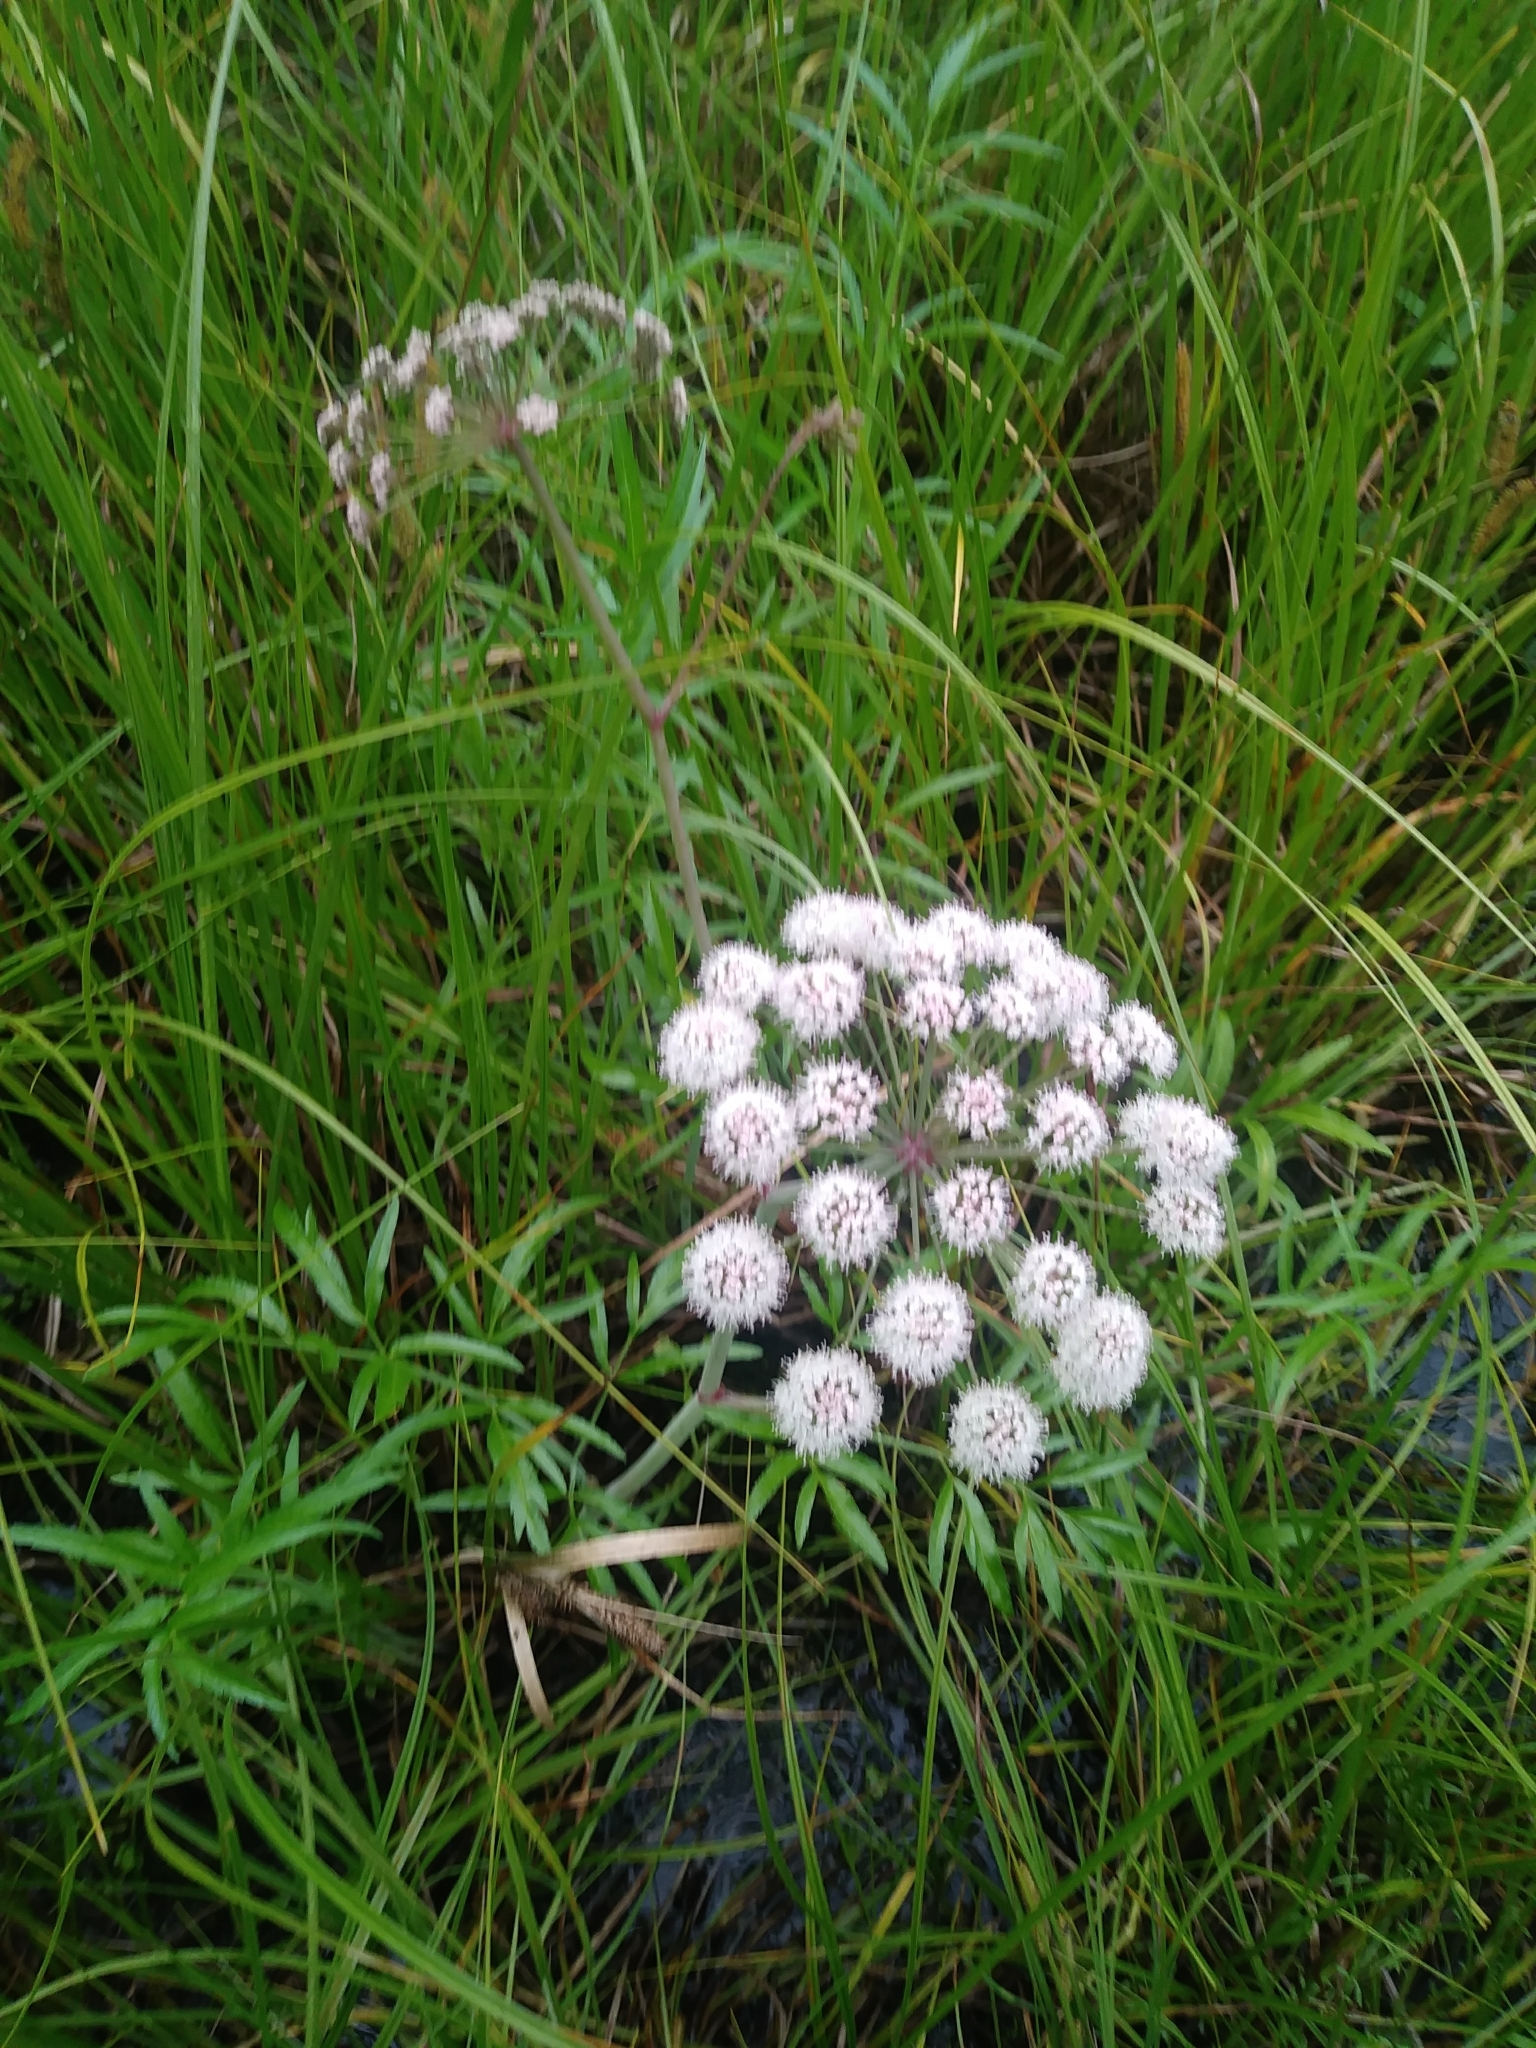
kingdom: Plantae
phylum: Tracheophyta
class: Magnoliopsida
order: Apiales
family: Apiaceae
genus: Cicuta
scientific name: Cicuta virosa
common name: Cowbane
